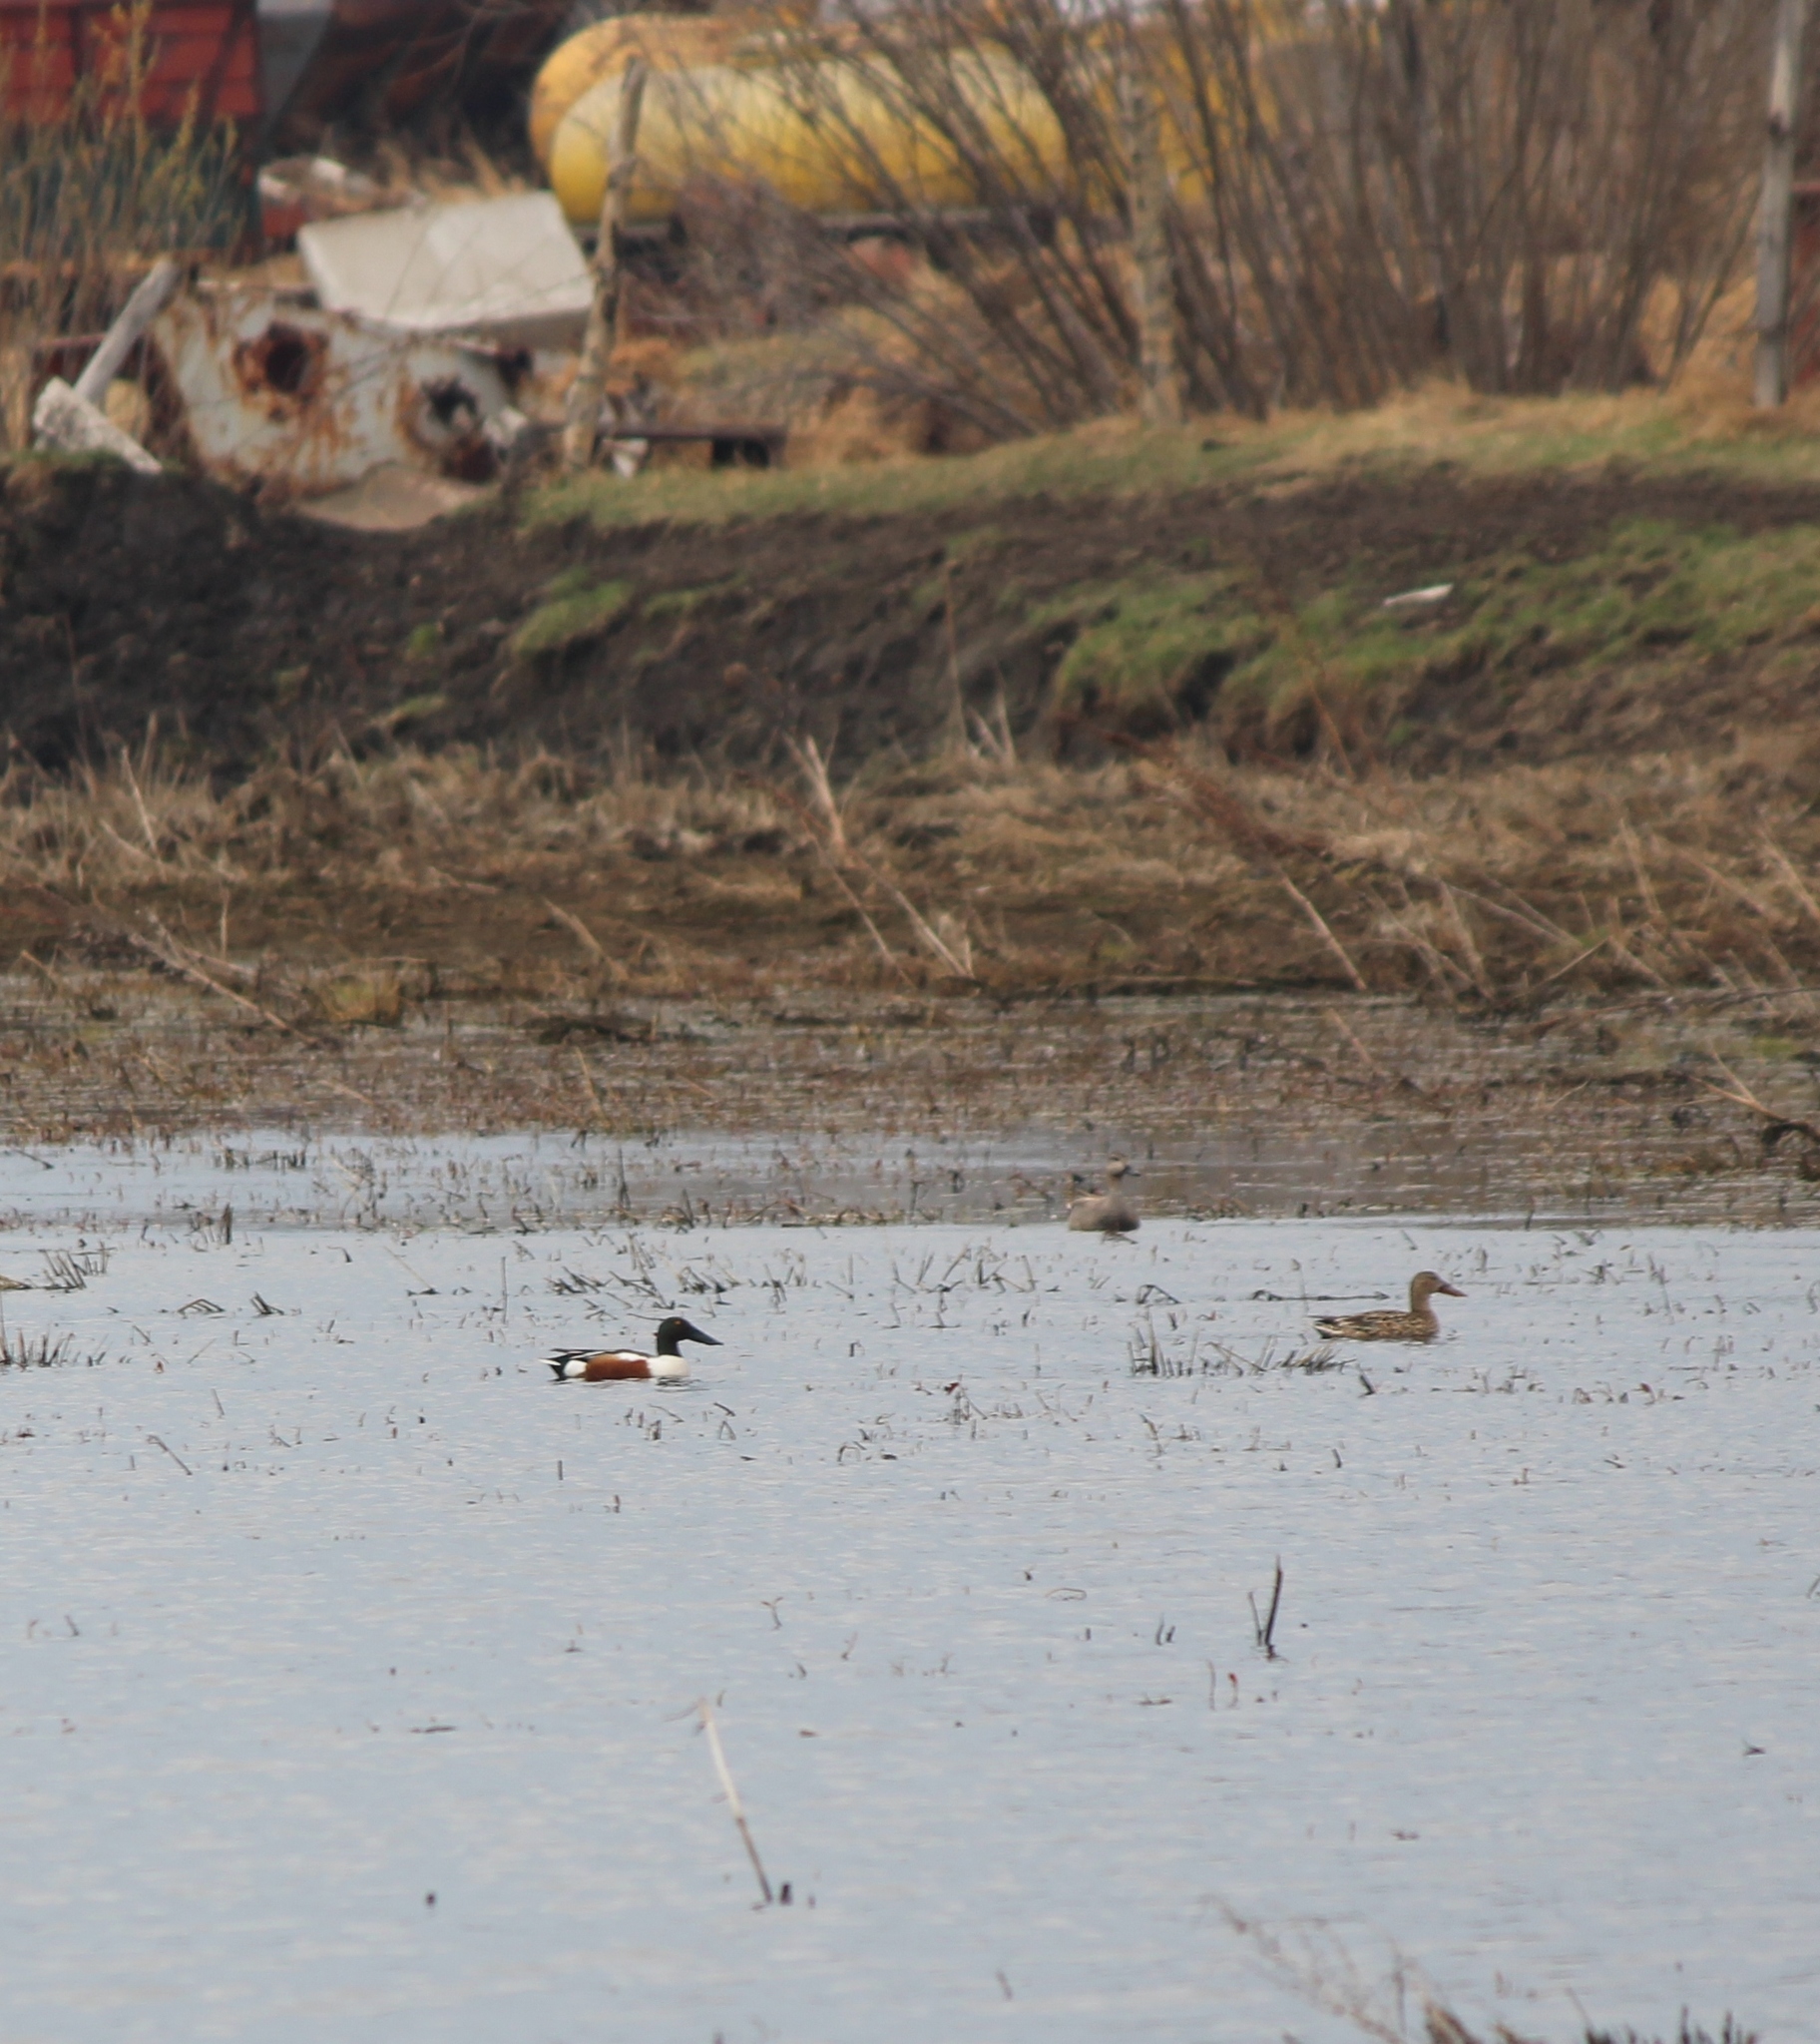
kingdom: Animalia
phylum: Chordata
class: Aves
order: Anseriformes
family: Anatidae
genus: Spatula
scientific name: Spatula clypeata
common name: Northern shoveler
